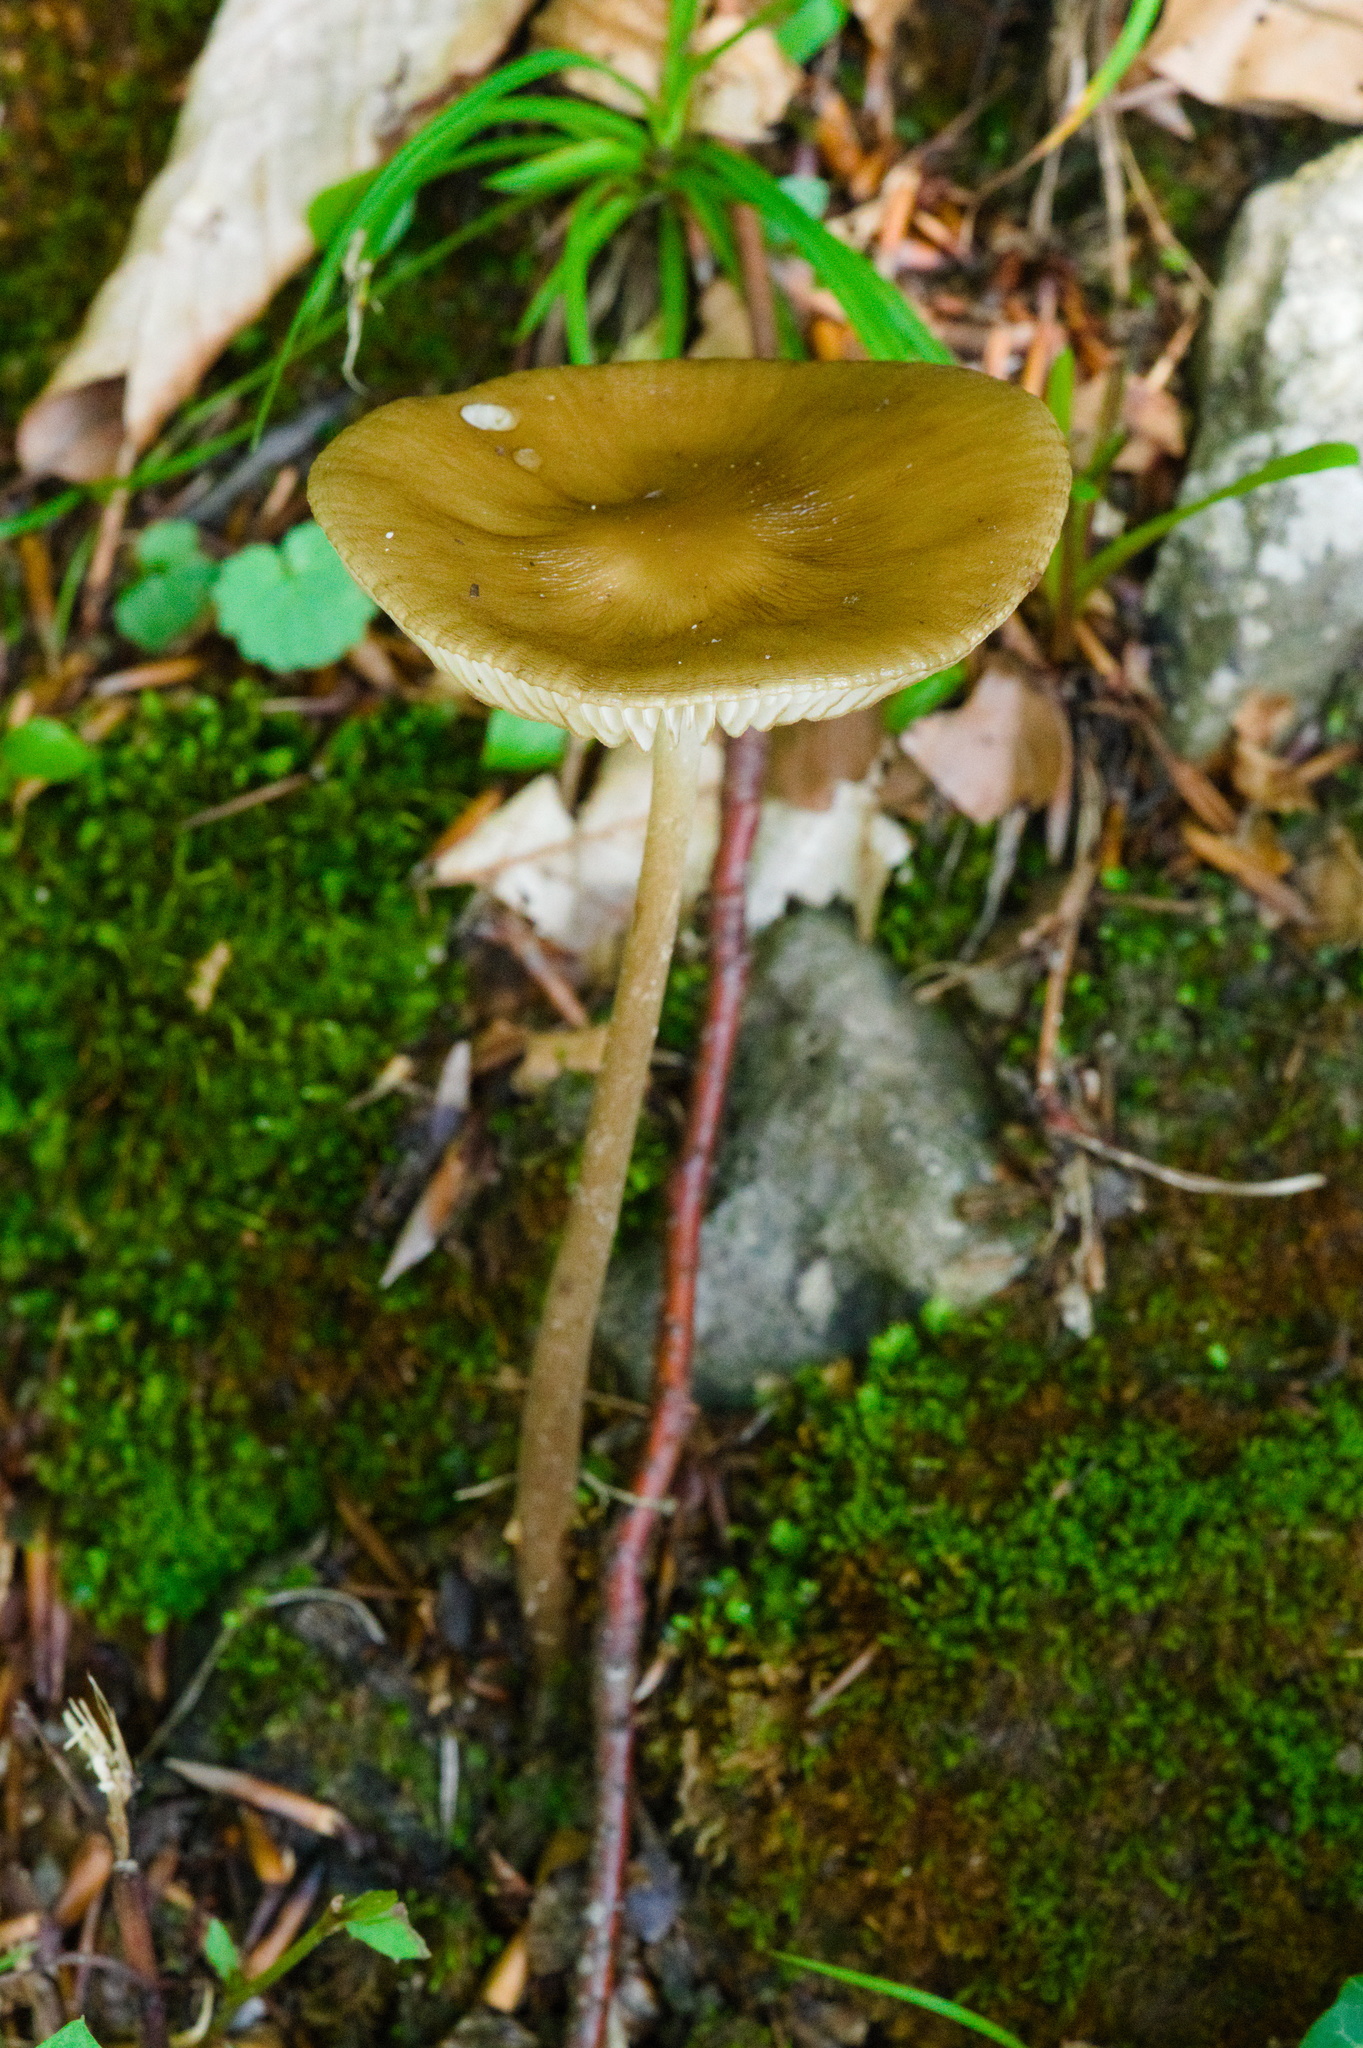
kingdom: Fungi
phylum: Basidiomycota
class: Agaricomycetes
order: Agaricales
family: Physalacriaceae
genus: Hymenopellis
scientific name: Hymenopellis radicata
